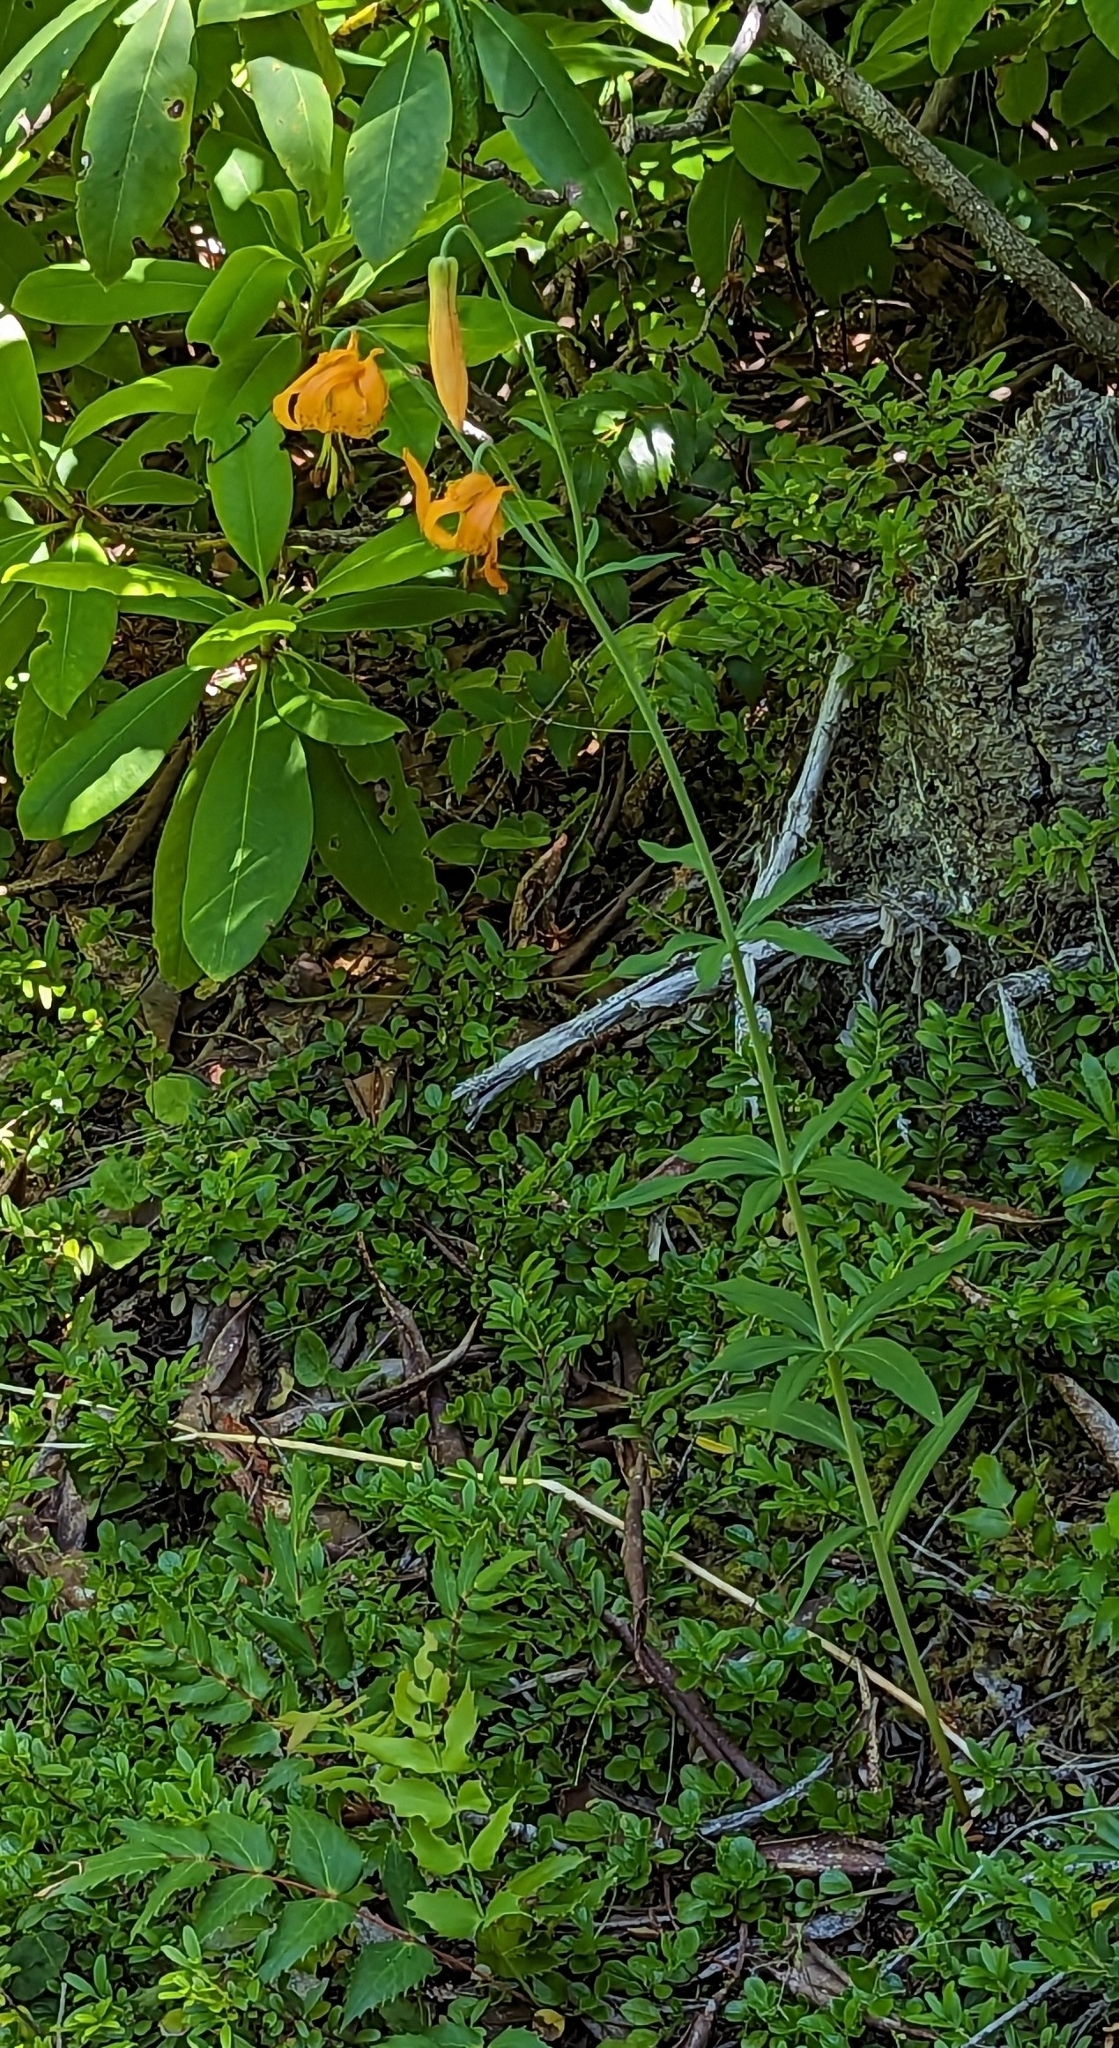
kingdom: Plantae
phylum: Tracheophyta
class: Liliopsida
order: Liliales
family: Liliaceae
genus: Lilium
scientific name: Lilium columbianum
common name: Columbia lily
